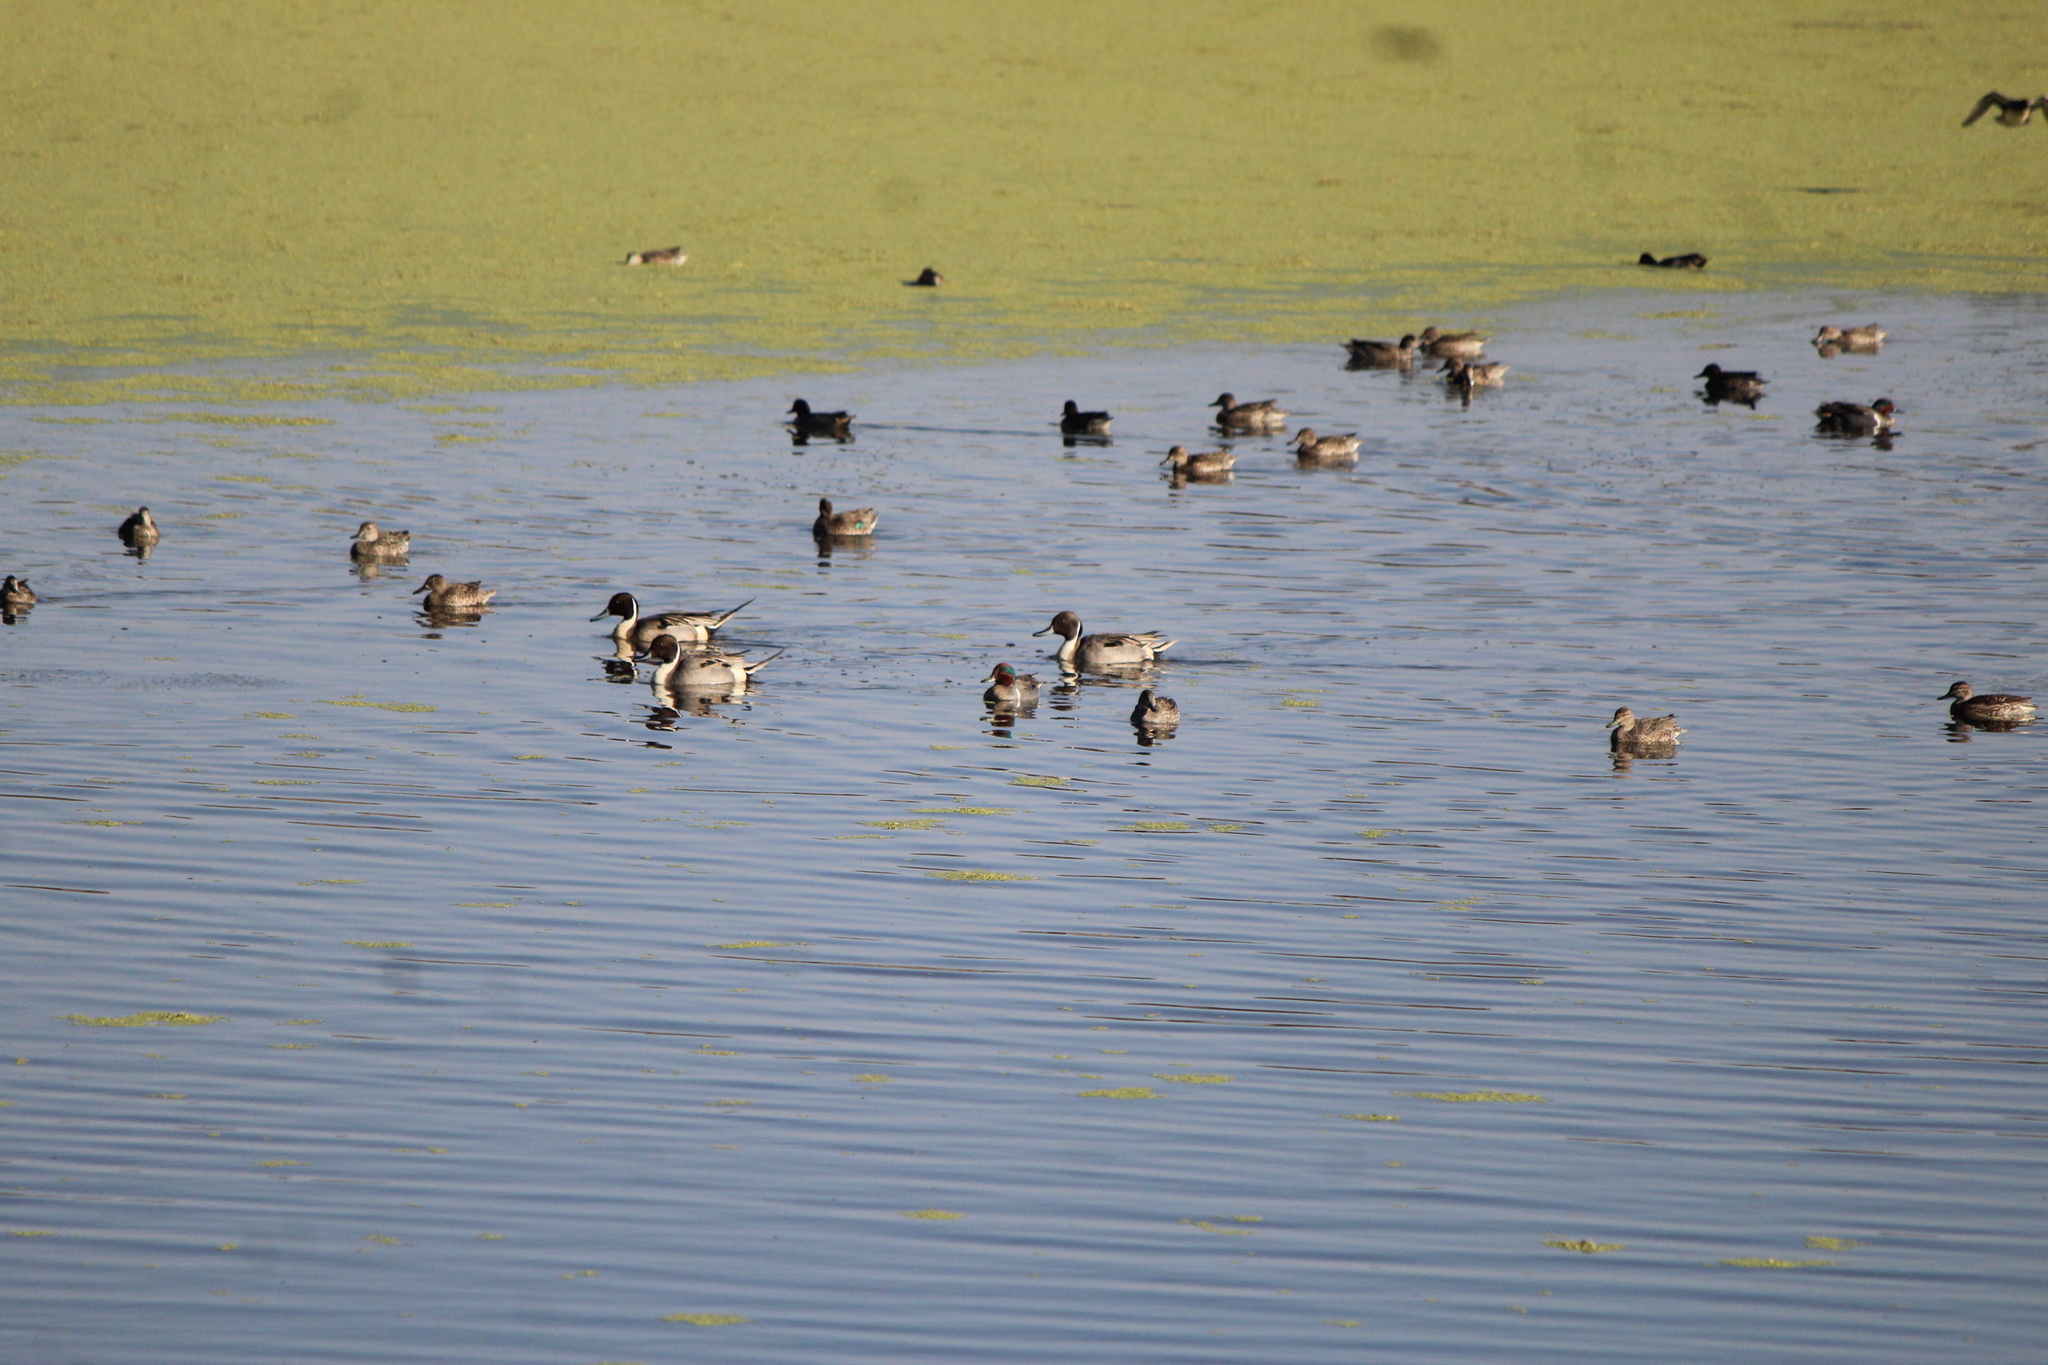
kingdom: Animalia
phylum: Chordata
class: Aves
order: Anseriformes
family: Anatidae
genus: Anas
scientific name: Anas acuta
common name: Northern pintail
